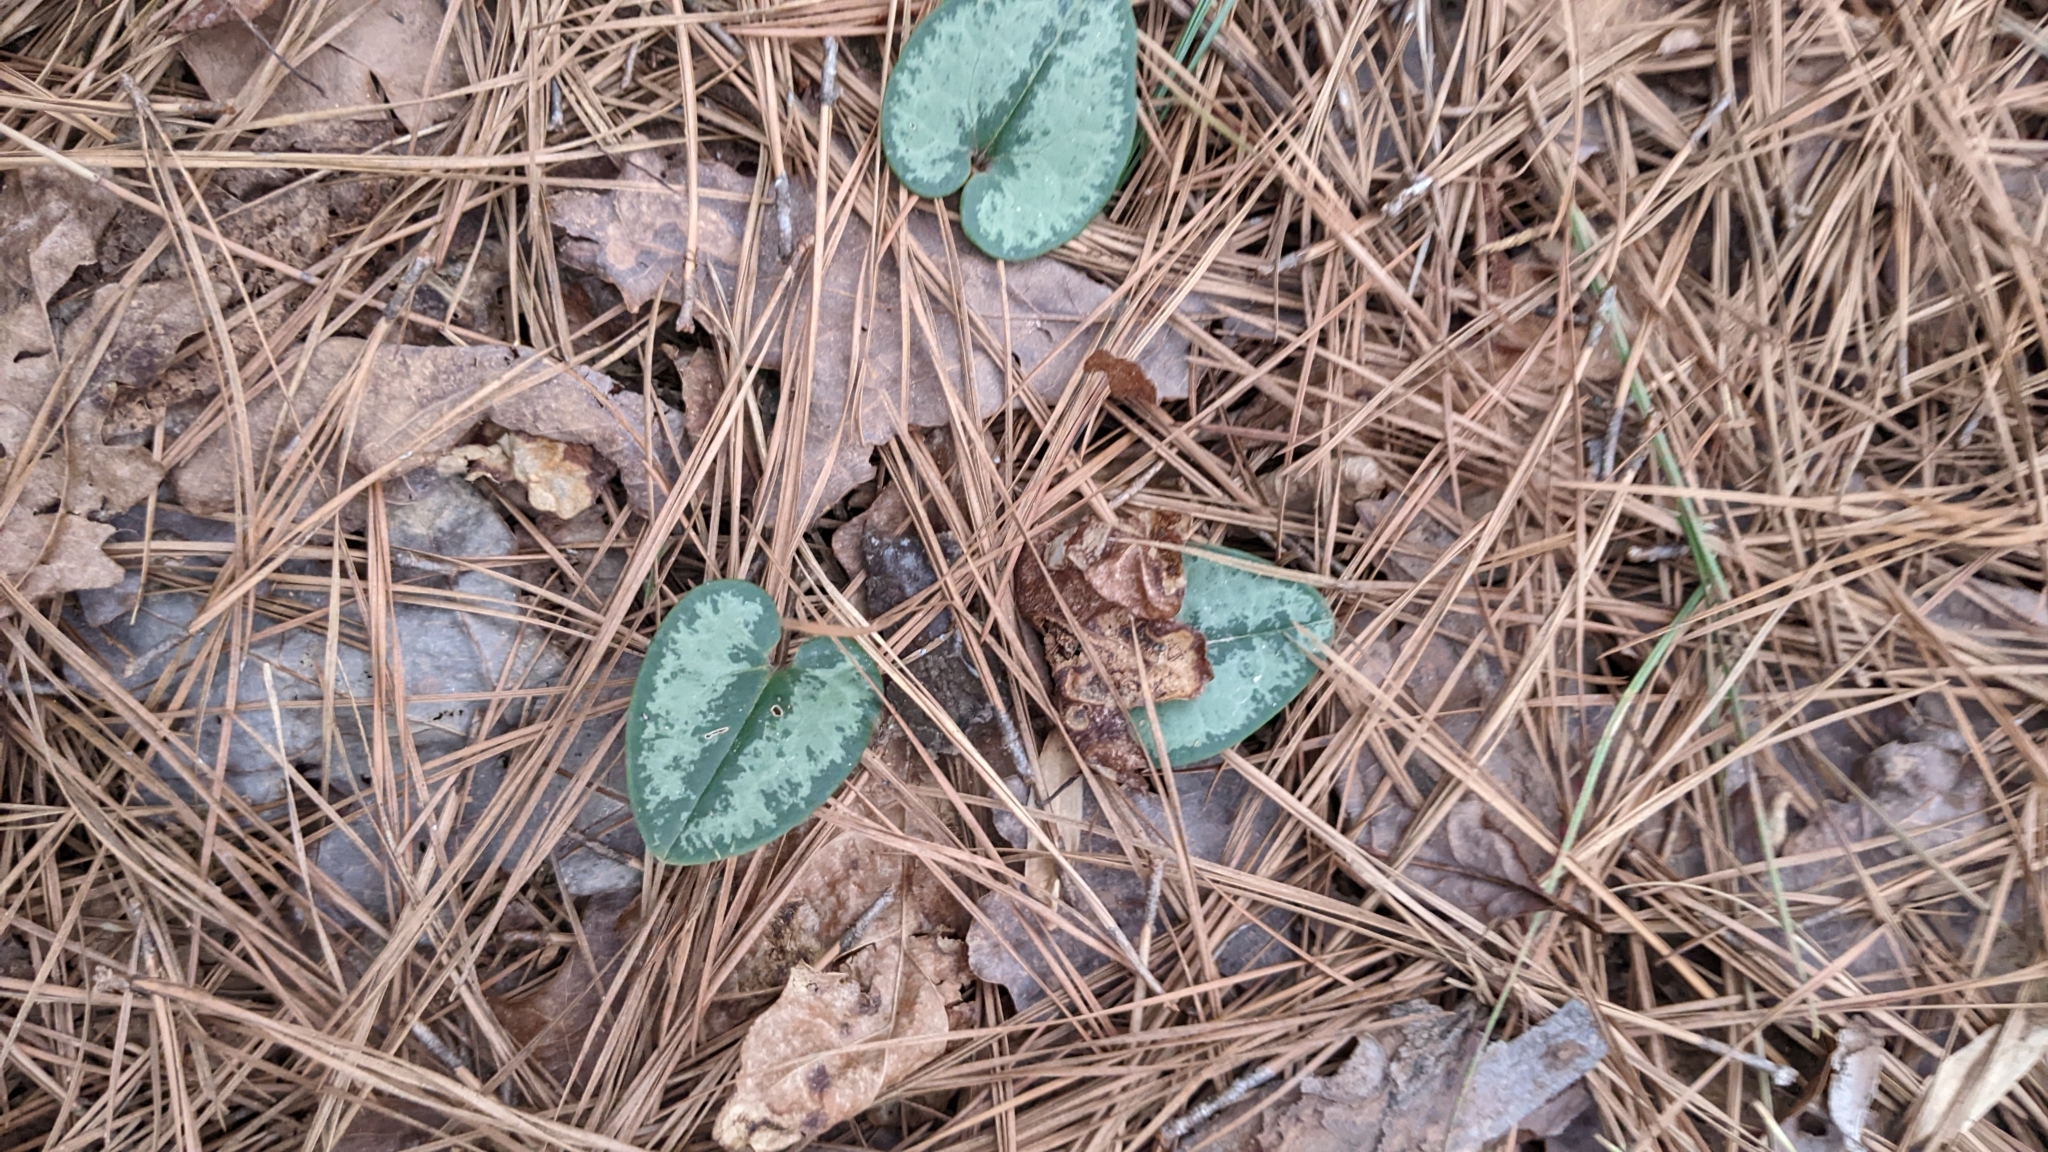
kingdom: Plantae
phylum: Tracheophyta
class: Magnoliopsida
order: Piperales
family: Aristolochiaceae
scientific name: Aristolochiaceae
